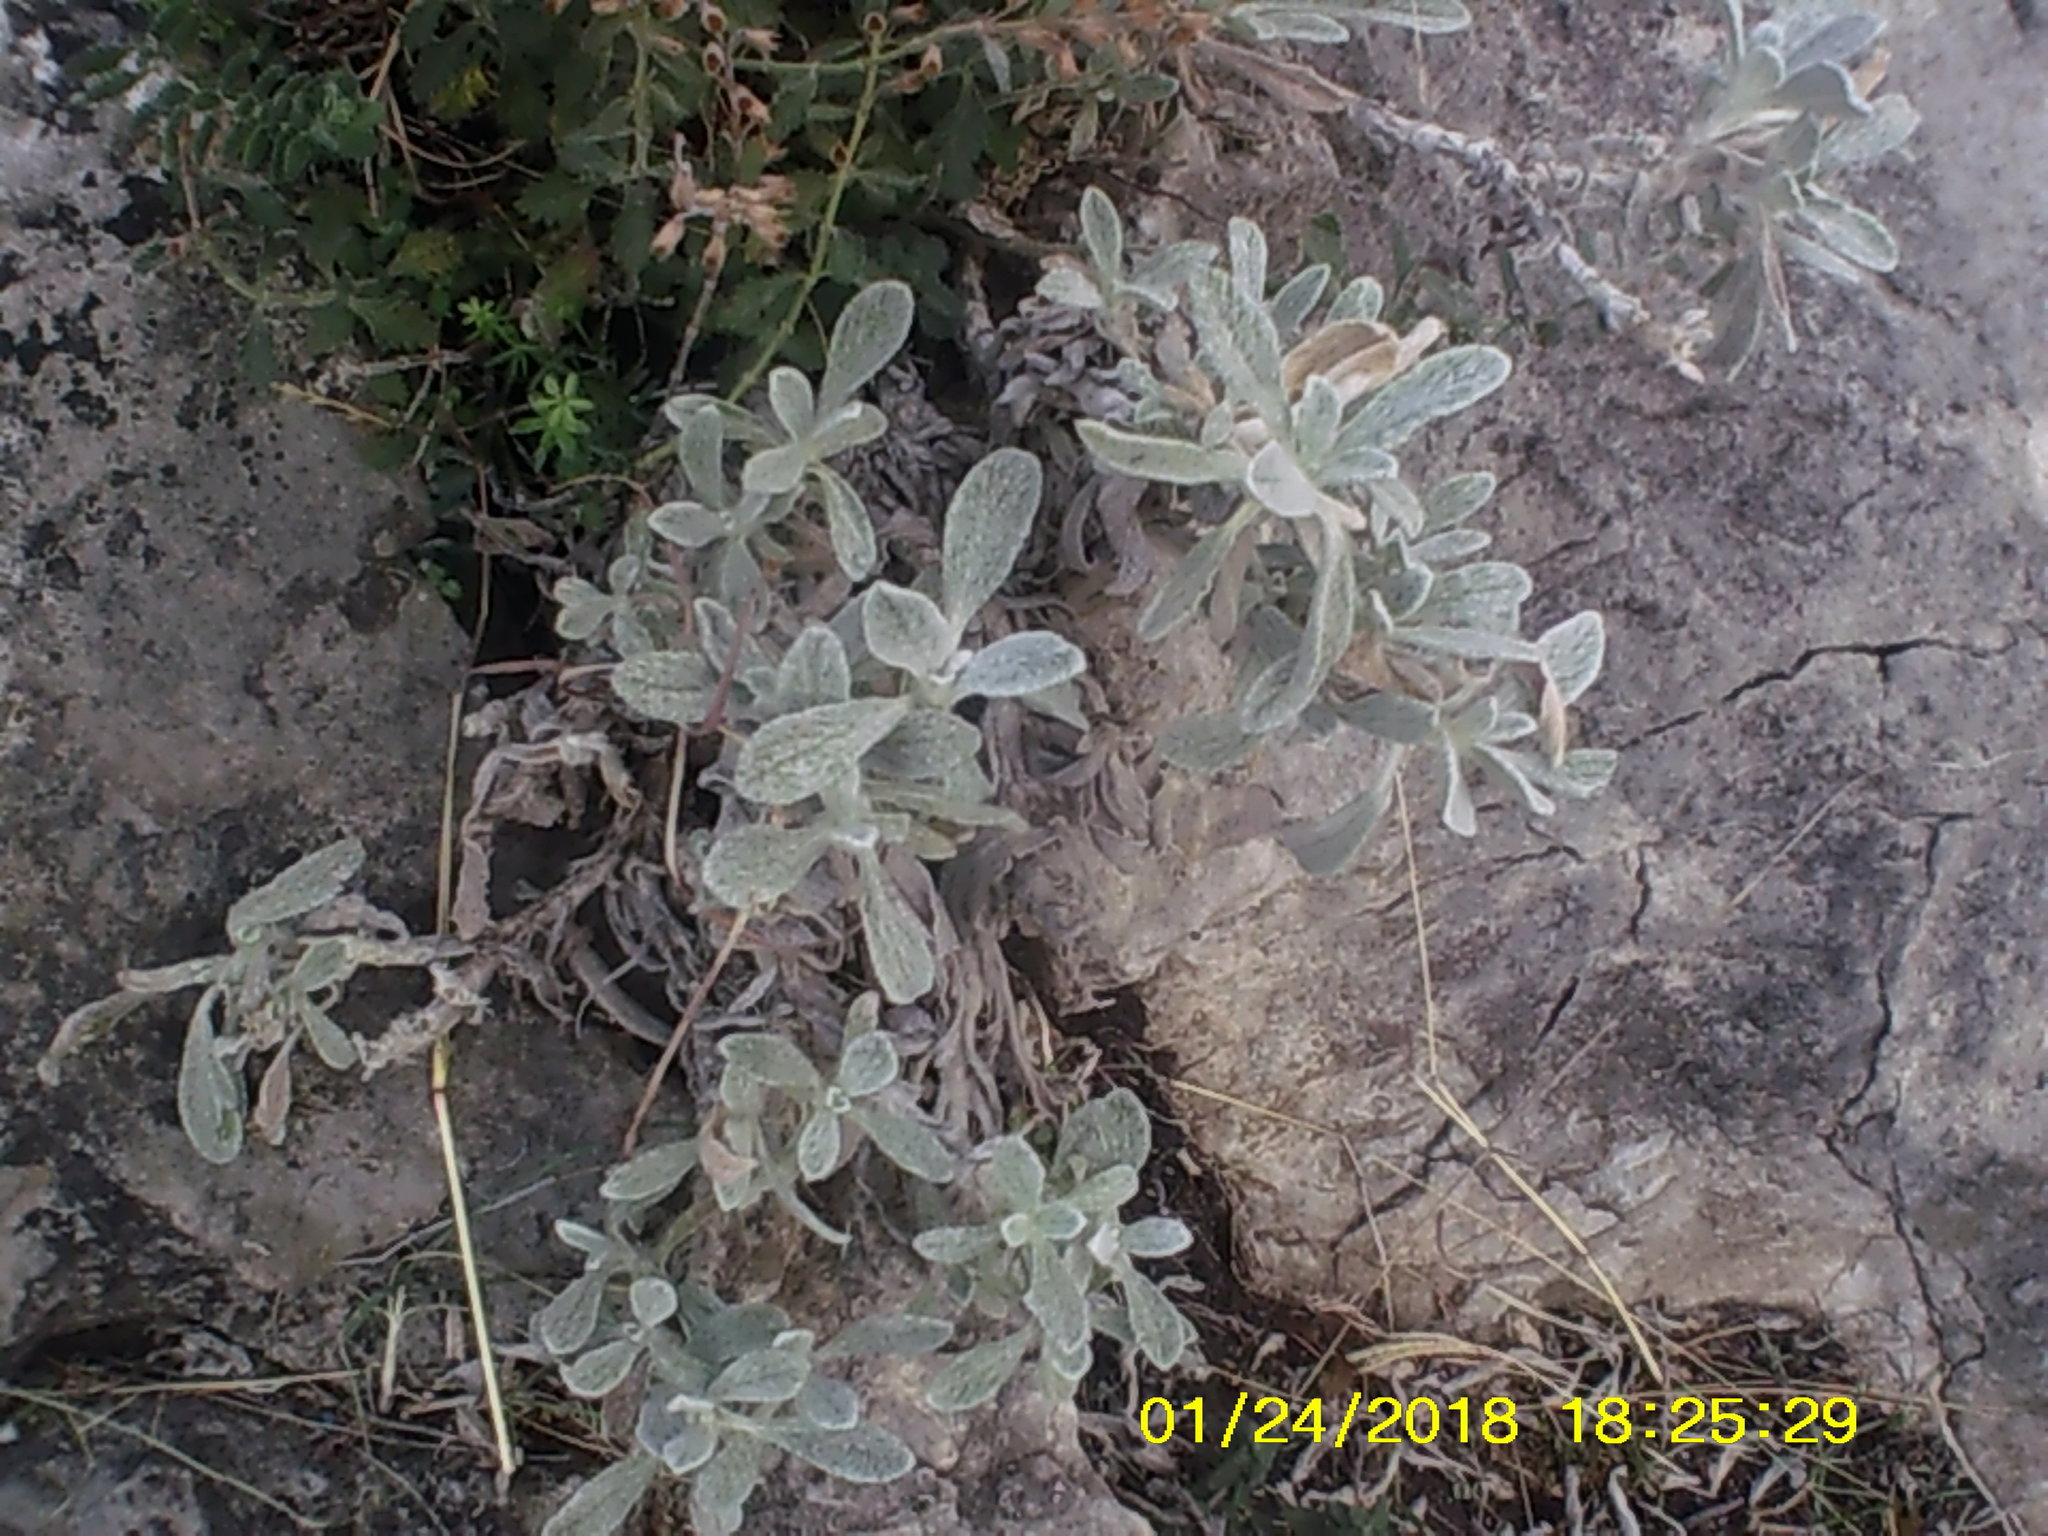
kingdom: Plantae
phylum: Tracheophyta
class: Magnoliopsida
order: Lamiales
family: Lamiaceae
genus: Sideritis
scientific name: Sideritis taurica
